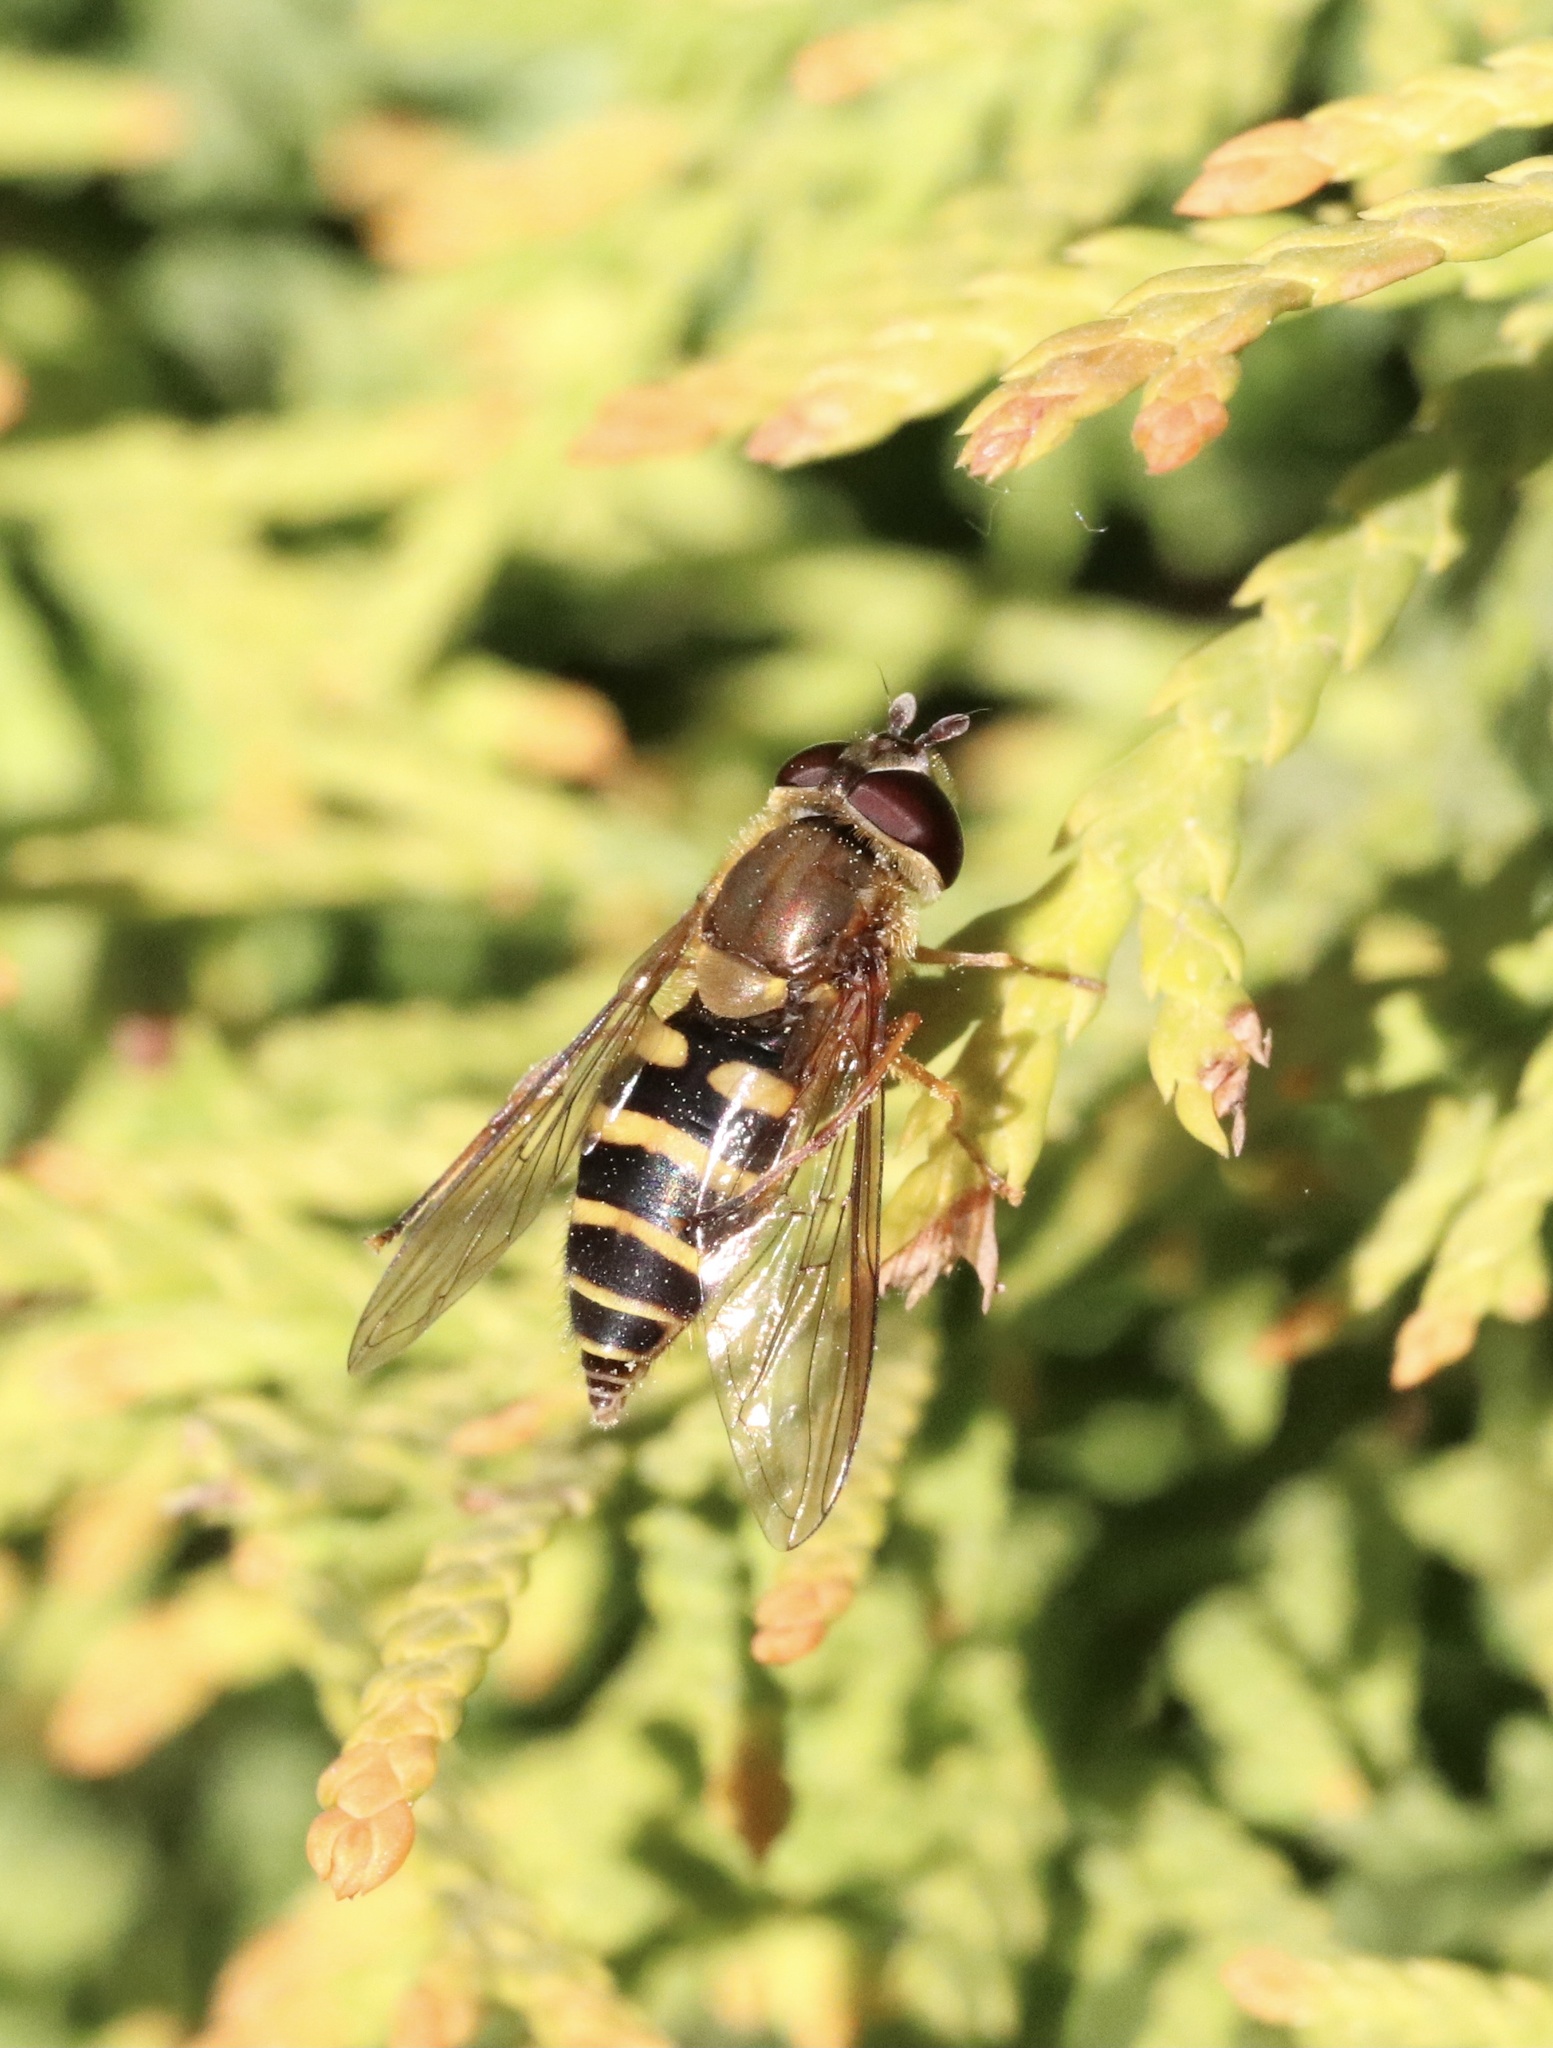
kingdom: Animalia
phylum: Arthropoda
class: Insecta
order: Diptera
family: Syrphidae
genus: Syrphus
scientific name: Syrphus reedi
